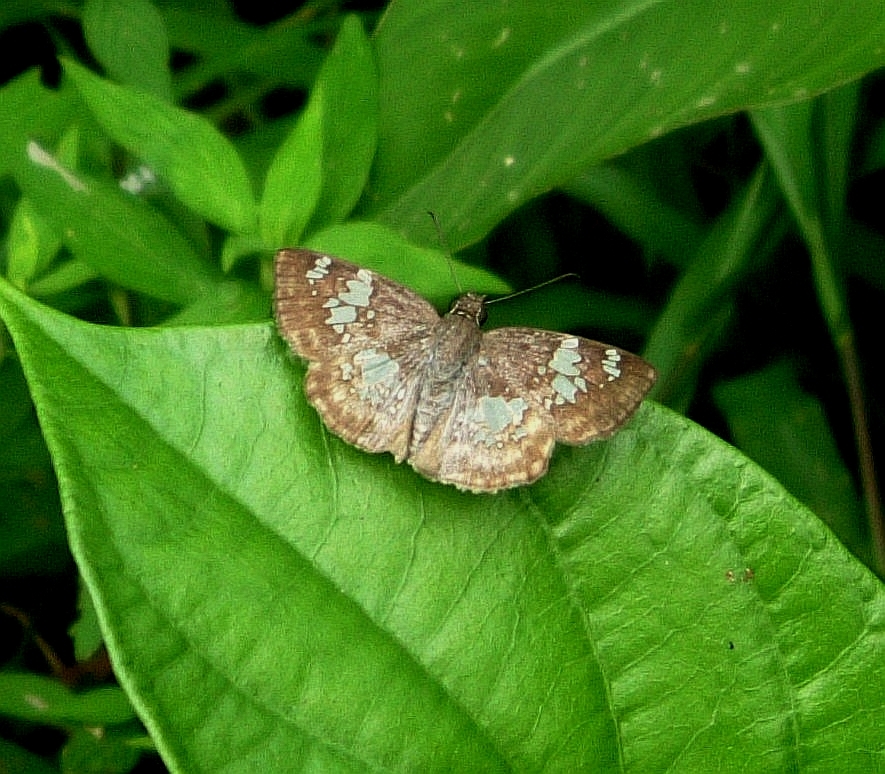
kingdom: Animalia
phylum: Arthropoda
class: Insecta
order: Lepidoptera
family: Hesperiidae
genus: Xenophanes
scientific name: Xenophanes tryxus
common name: Glassy-winged skipper
